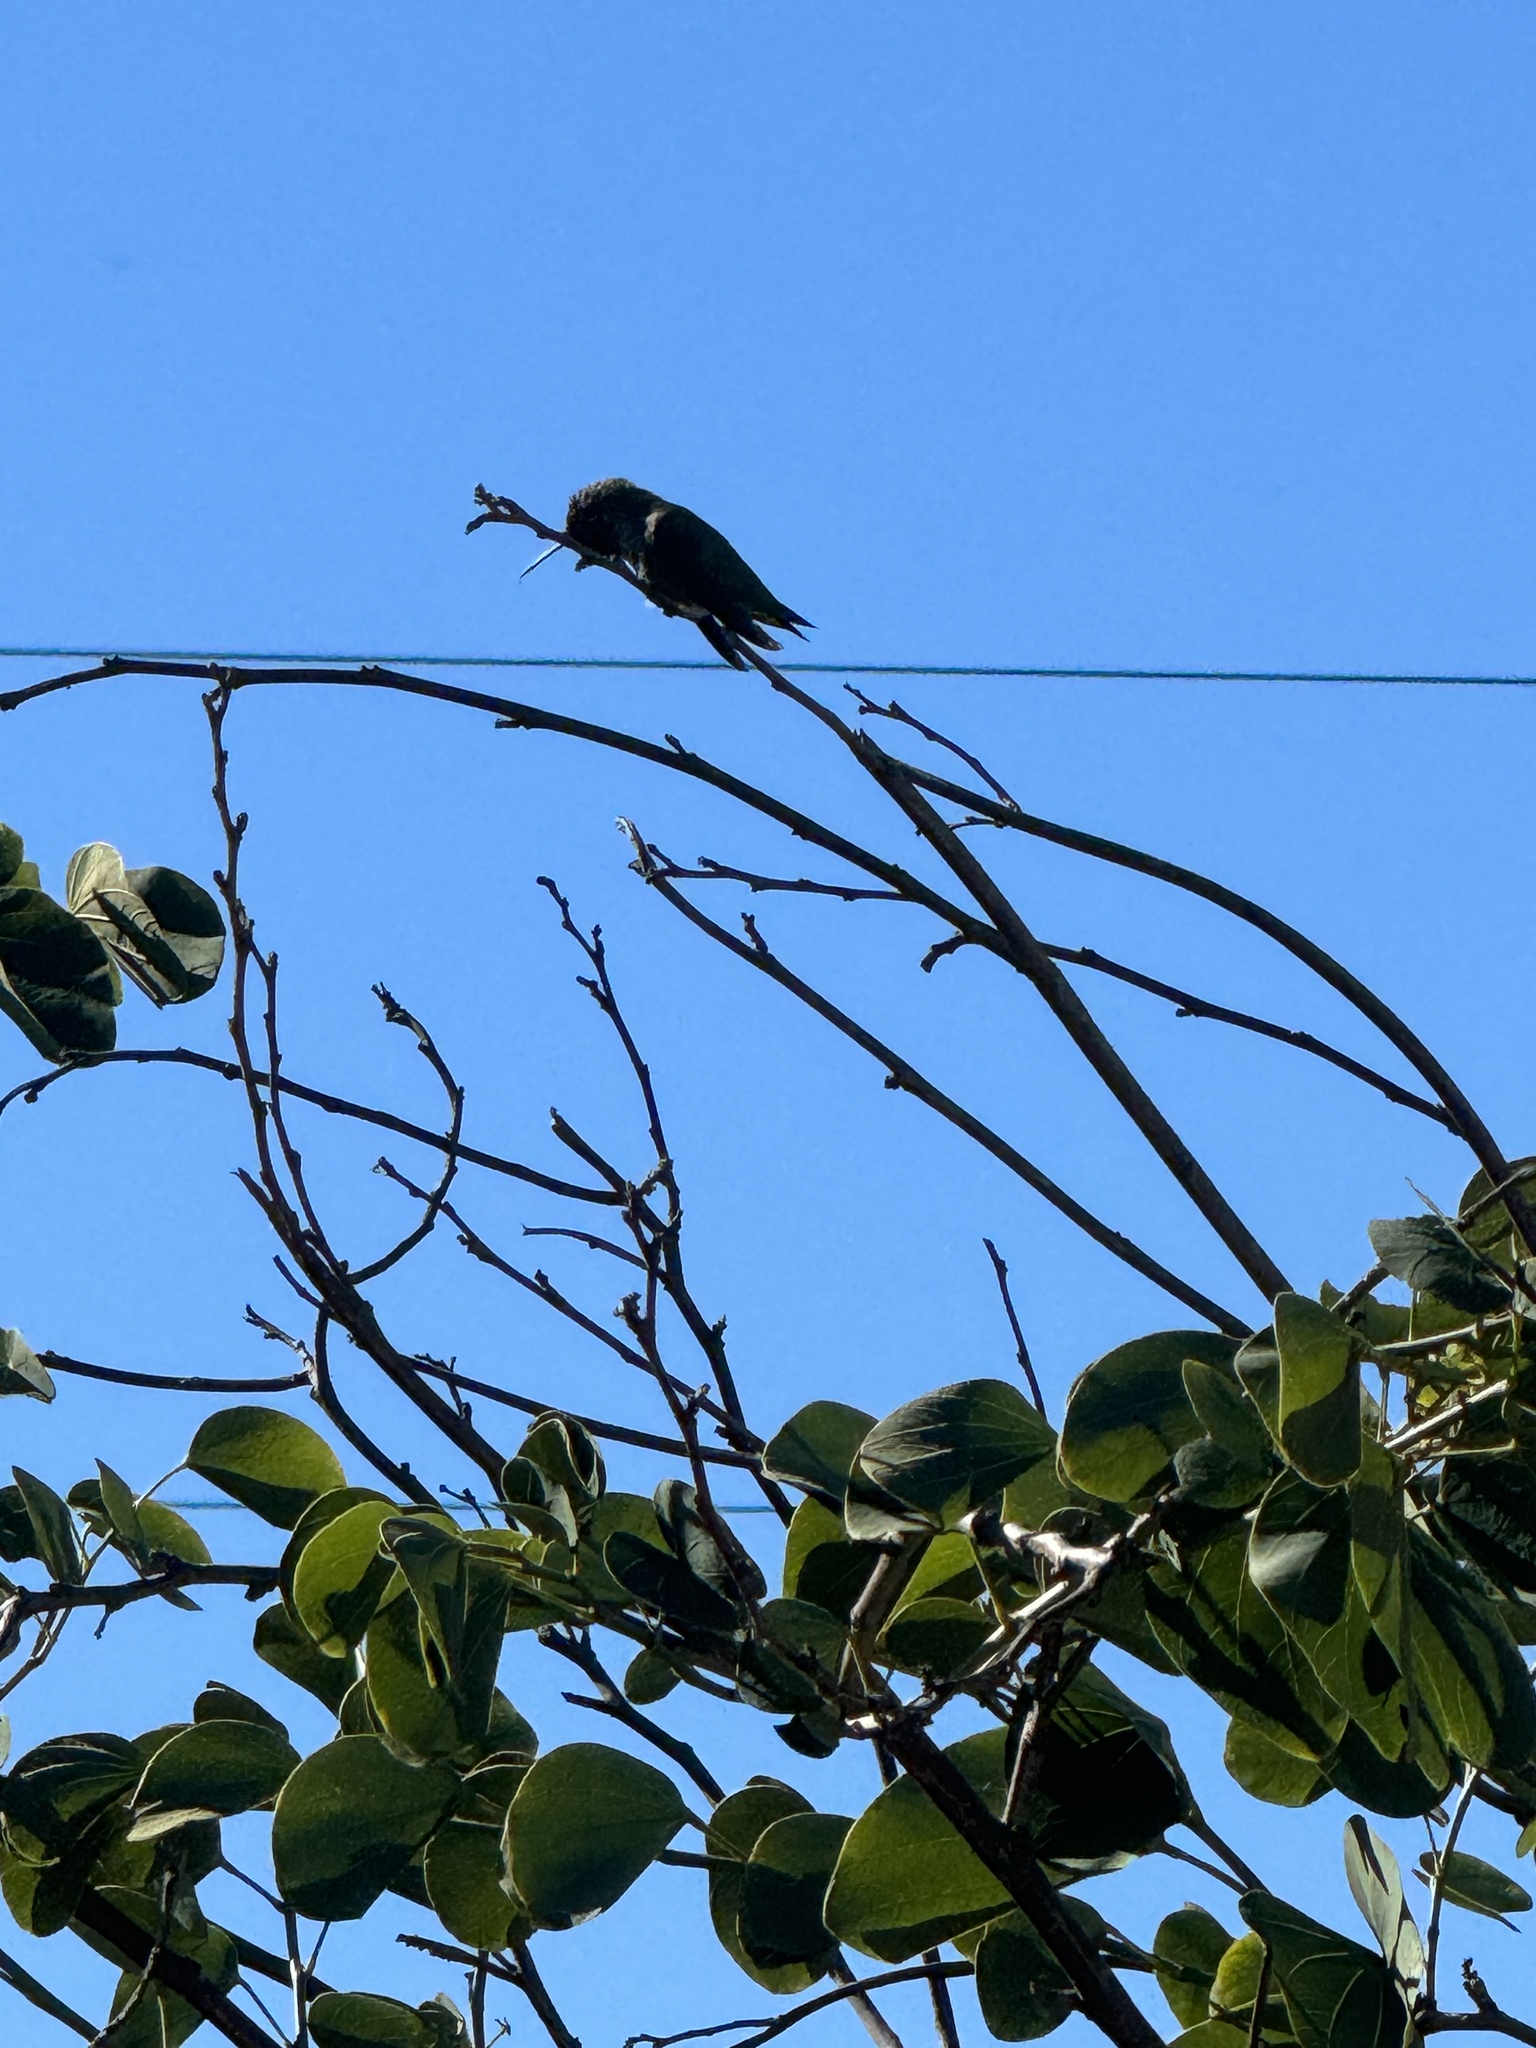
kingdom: Animalia
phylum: Chordata
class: Aves
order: Apodiformes
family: Trochilidae
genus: Calypte
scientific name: Calypte anna
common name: Anna's hummingbird
